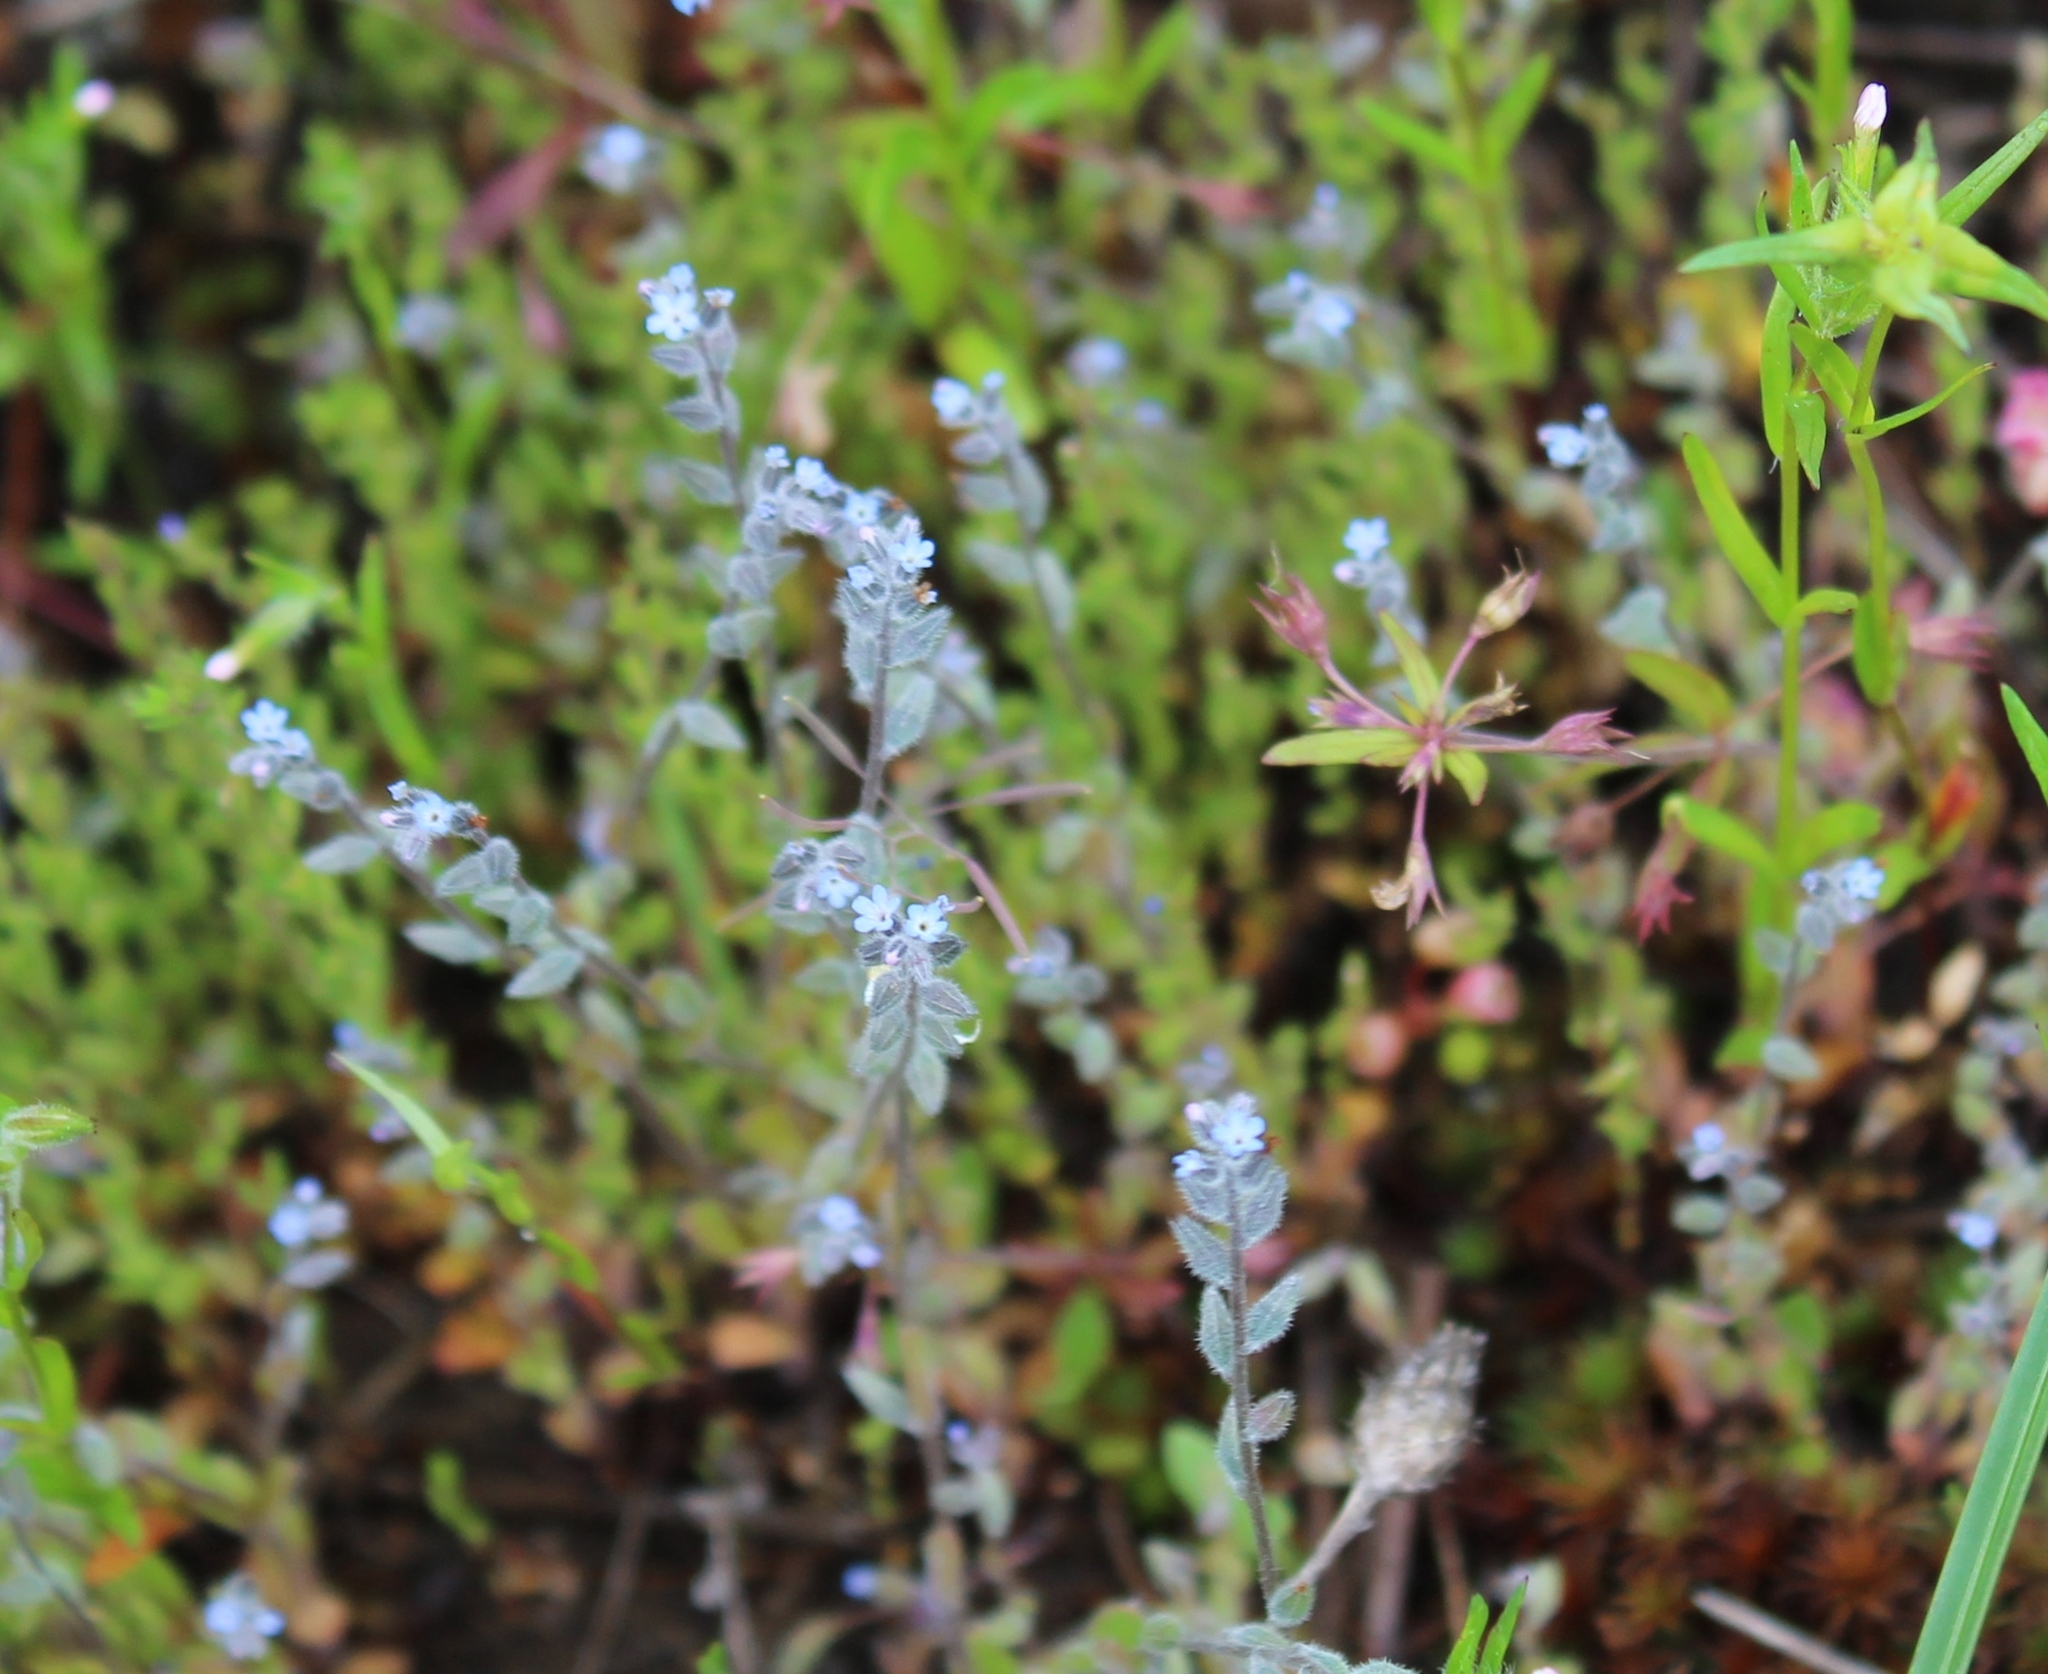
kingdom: Plantae
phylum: Tracheophyta
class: Magnoliopsida
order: Boraginales
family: Boraginaceae
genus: Myosotis
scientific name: Myosotis stricta
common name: Strict forget-me-not
